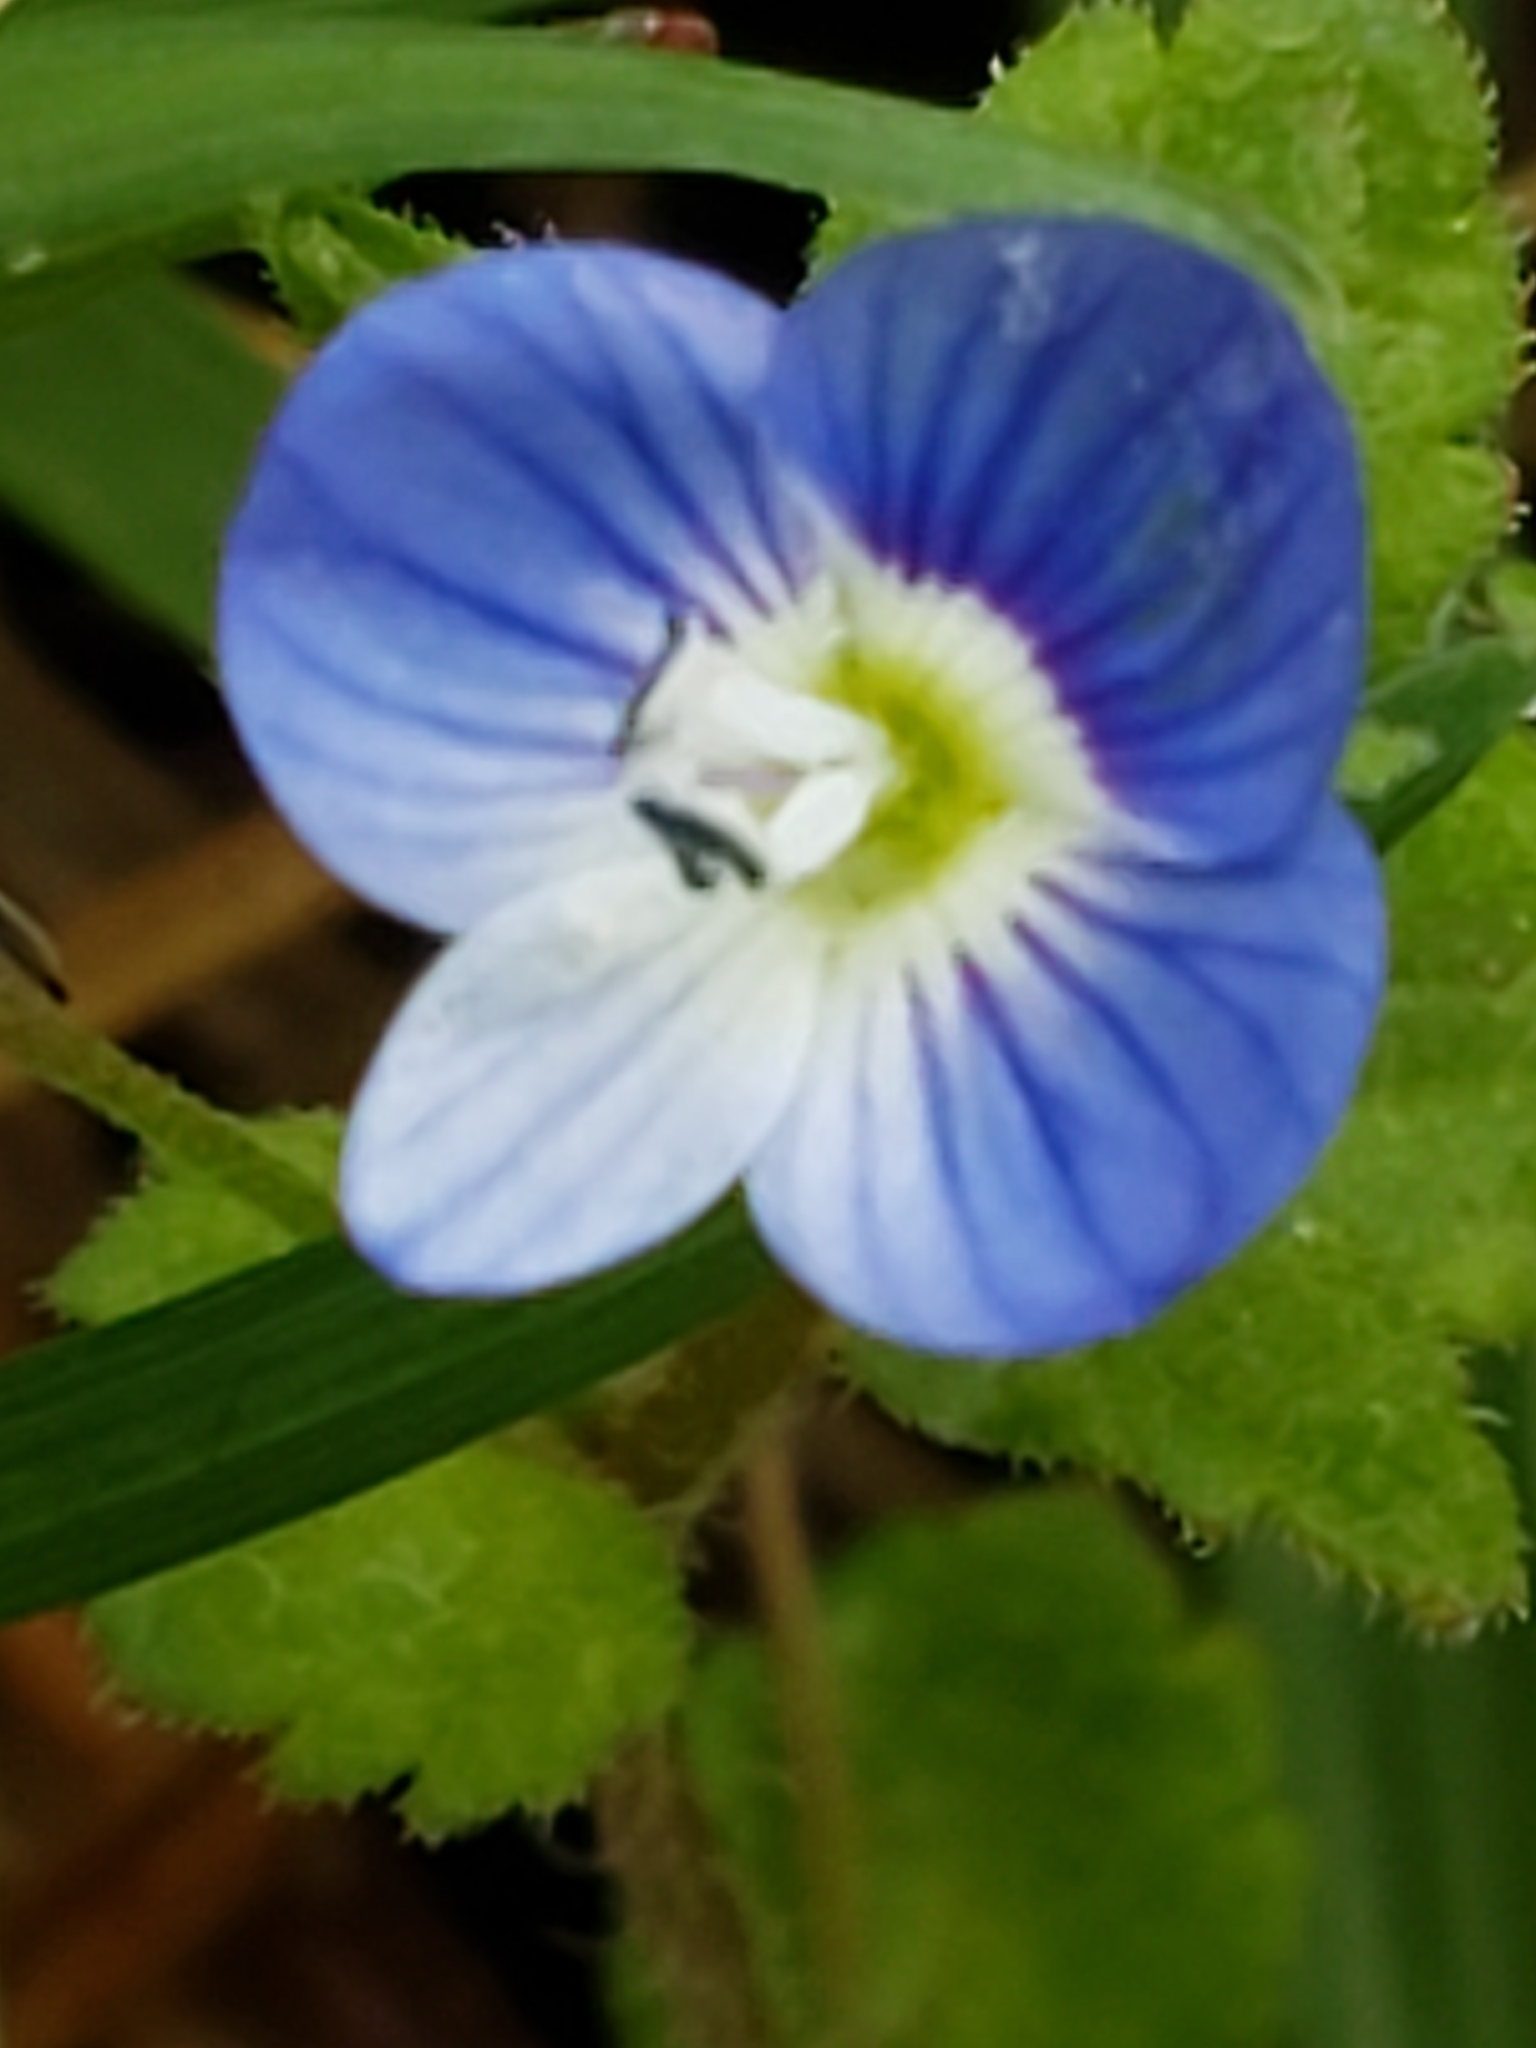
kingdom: Plantae
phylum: Tracheophyta
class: Magnoliopsida
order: Lamiales
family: Plantaginaceae
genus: Veronica
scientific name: Veronica persica
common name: Common field-speedwell
